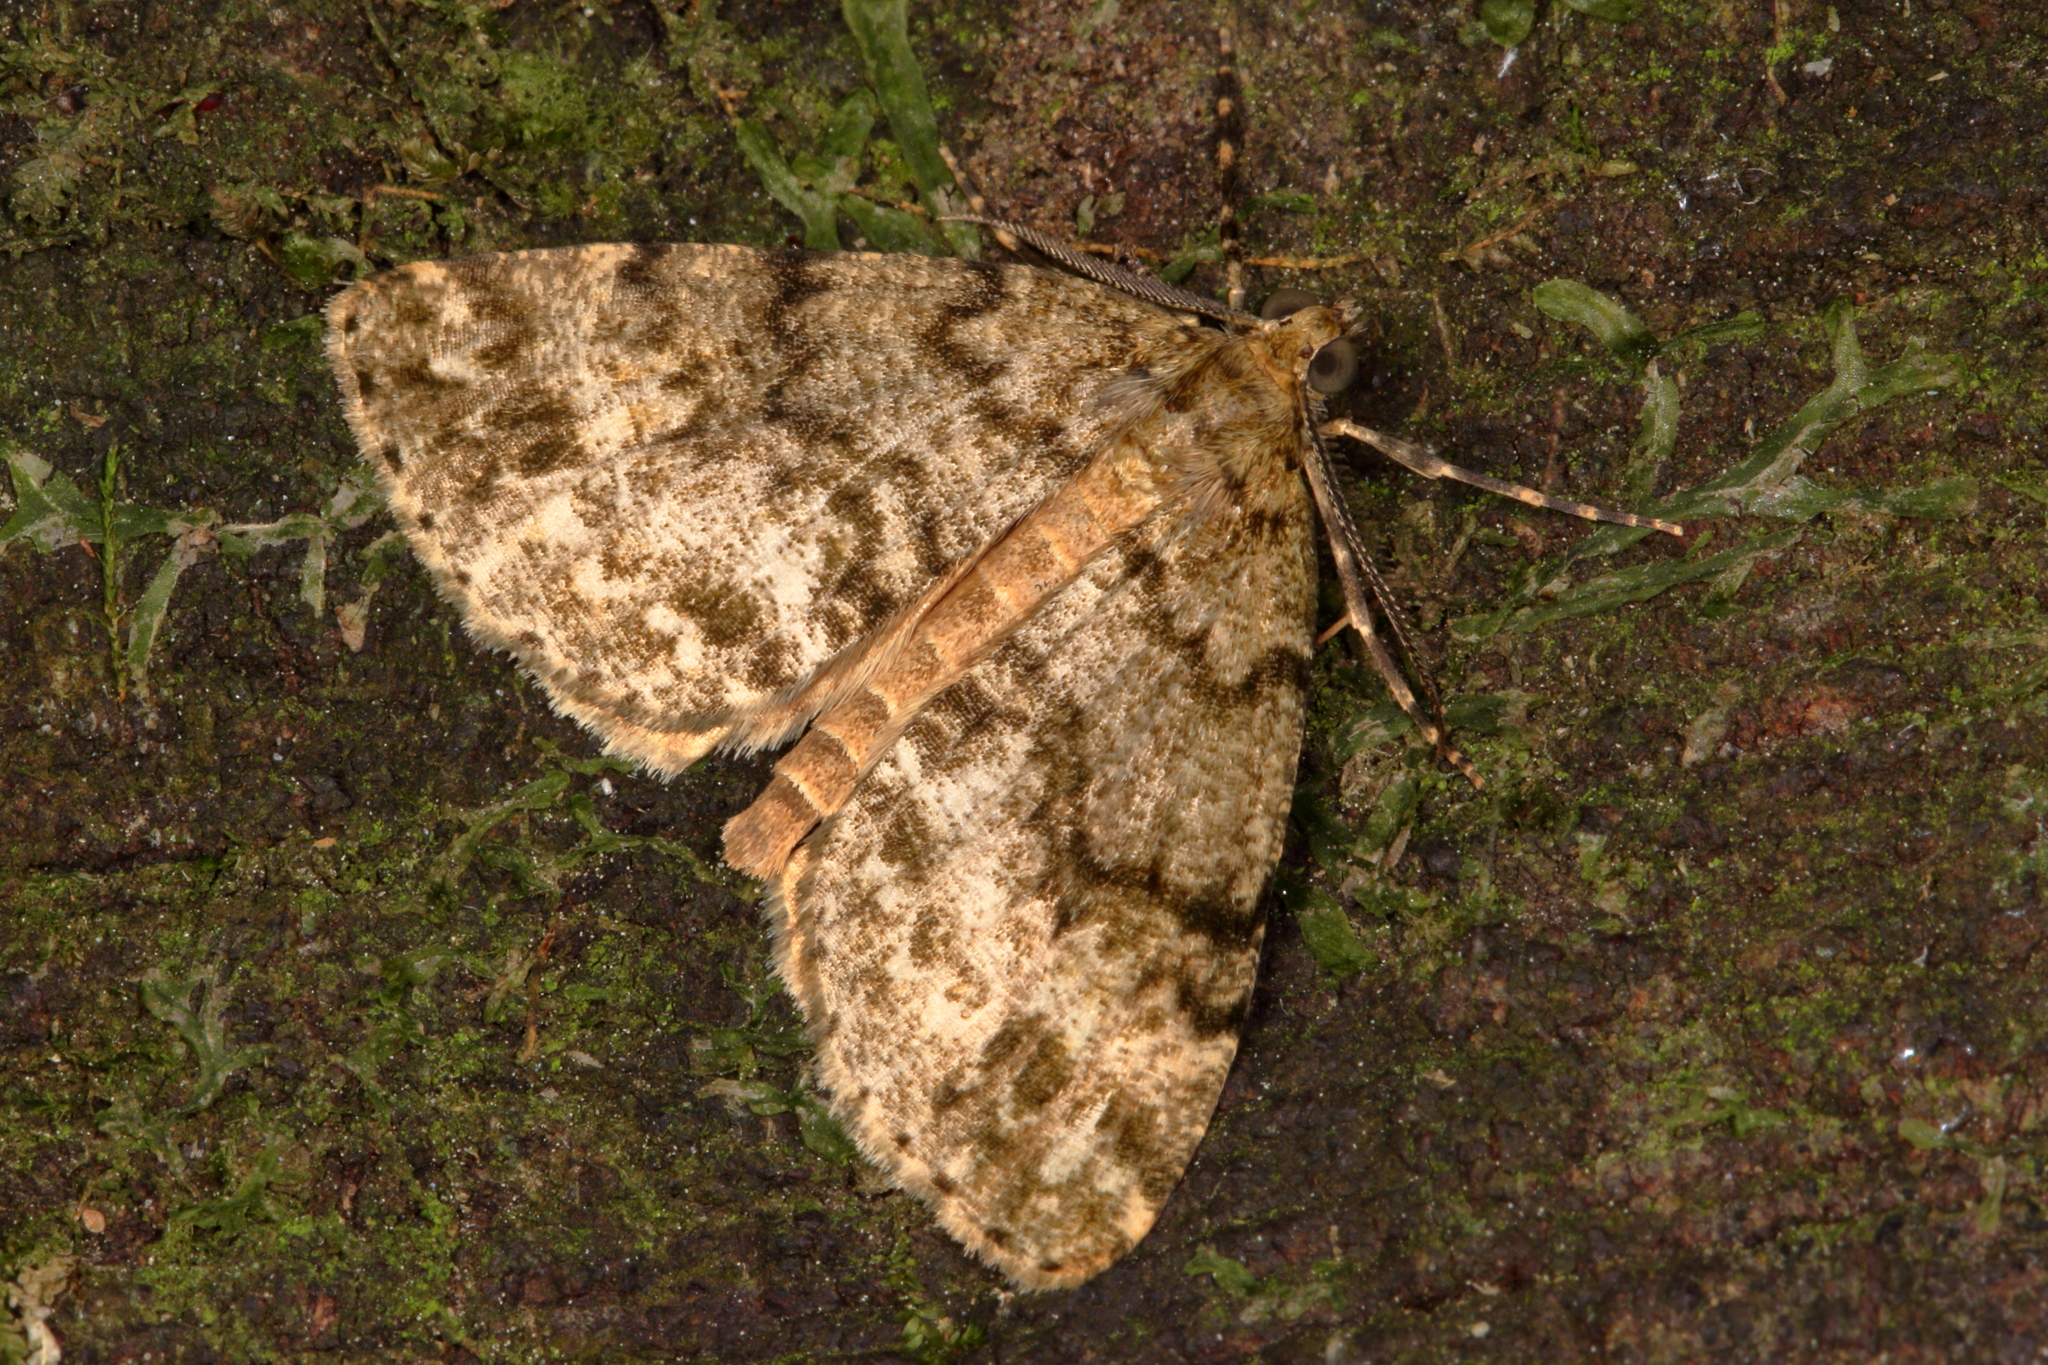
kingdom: Animalia
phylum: Arthropoda
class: Insecta
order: Lepidoptera
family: Geometridae
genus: Pseudocoremia
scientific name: Pseudocoremia indistincta
